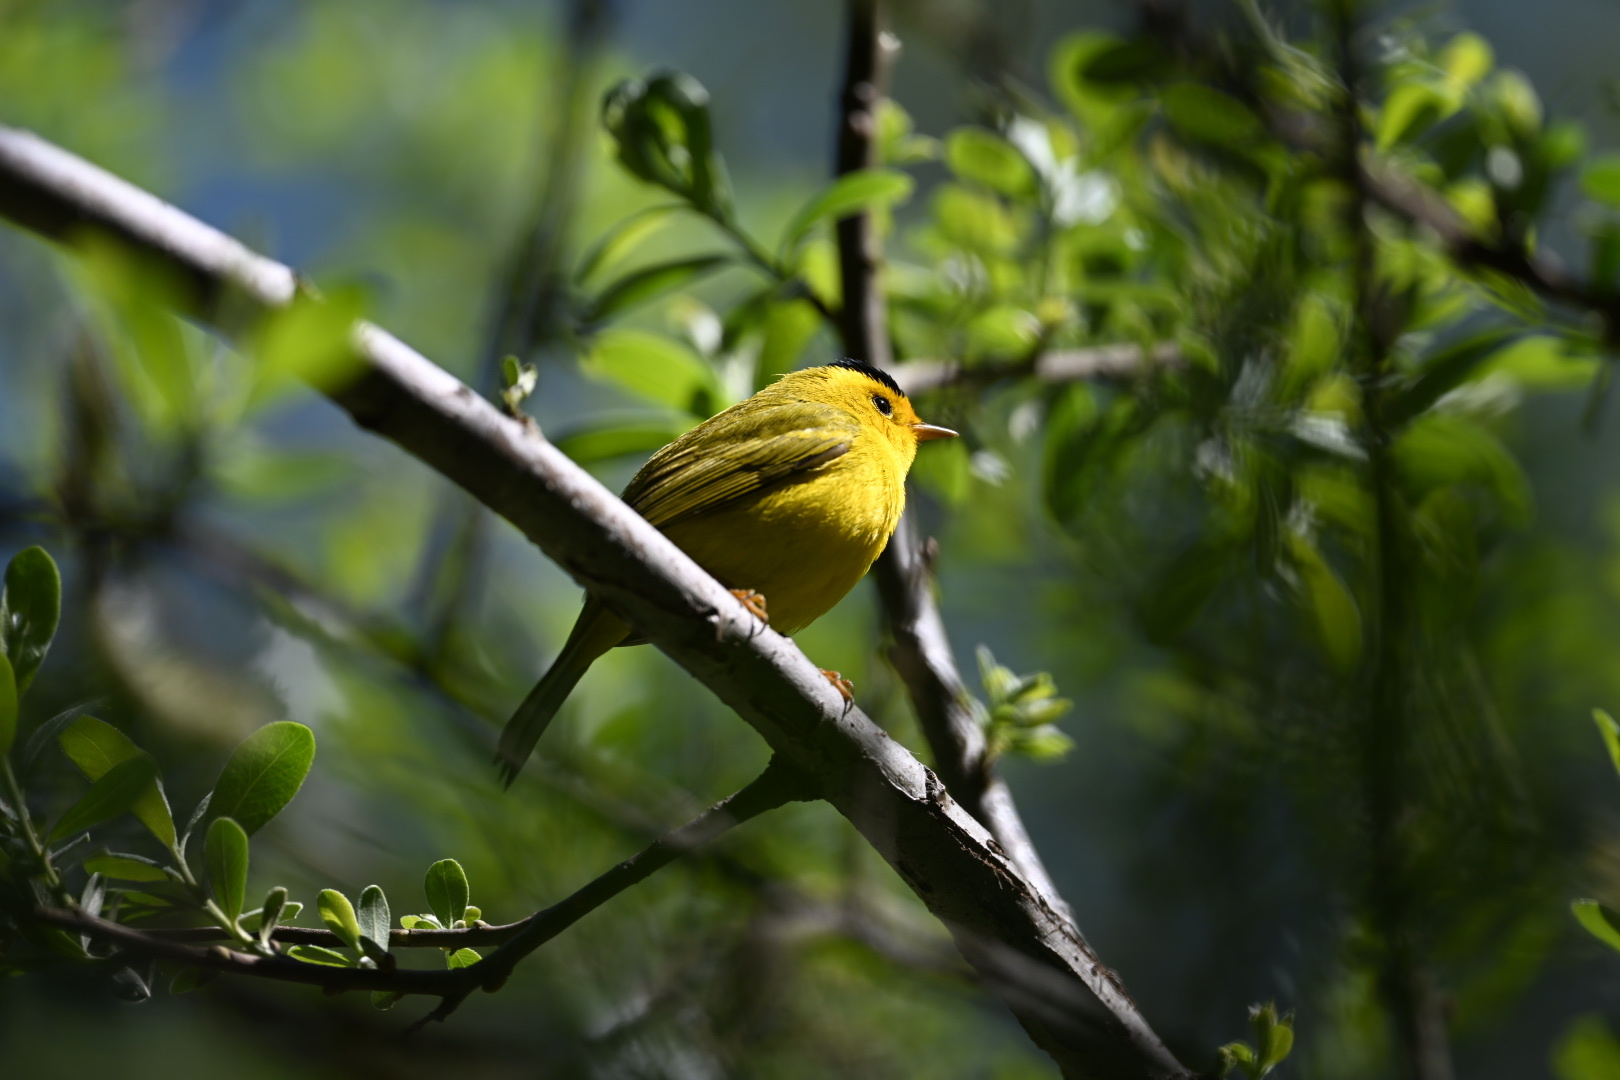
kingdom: Animalia
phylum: Chordata
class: Aves
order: Passeriformes
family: Parulidae
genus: Cardellina
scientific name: Cardellina pusilla
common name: Wilson's warbler
